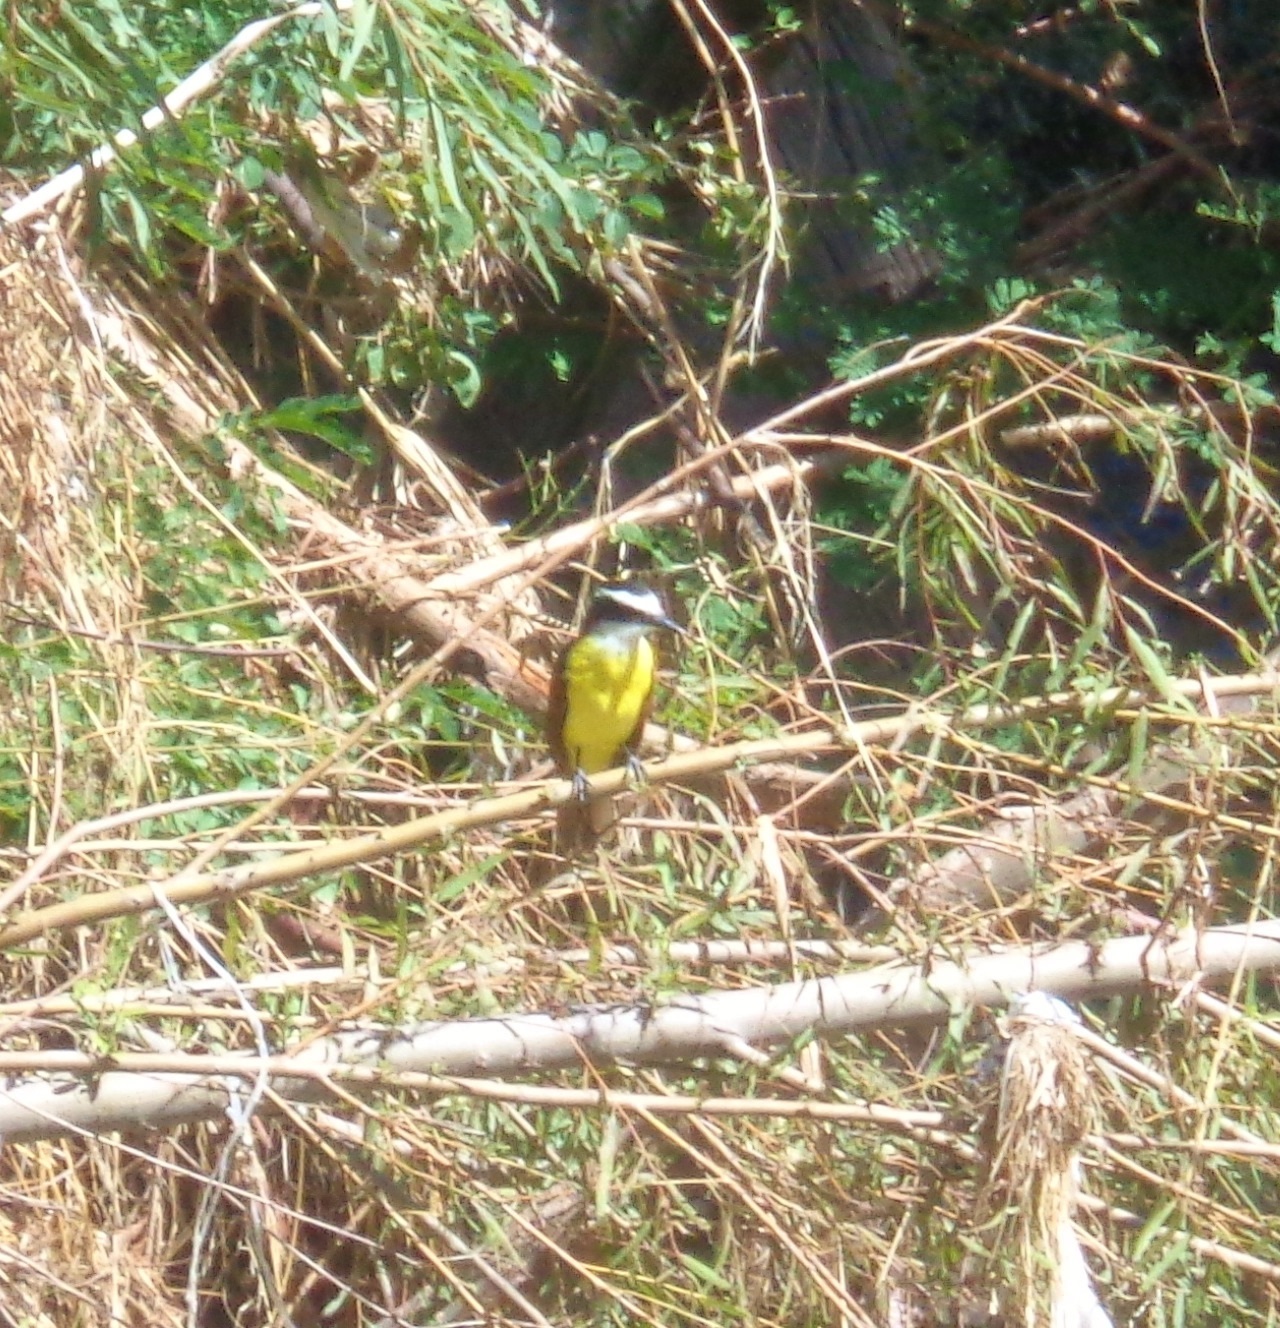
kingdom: Animalia
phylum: Chordata
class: Aves
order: Passeriformes
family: Tyrannidae
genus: Pitangus
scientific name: Pitangus sulphuratus
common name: Great kiskadee
